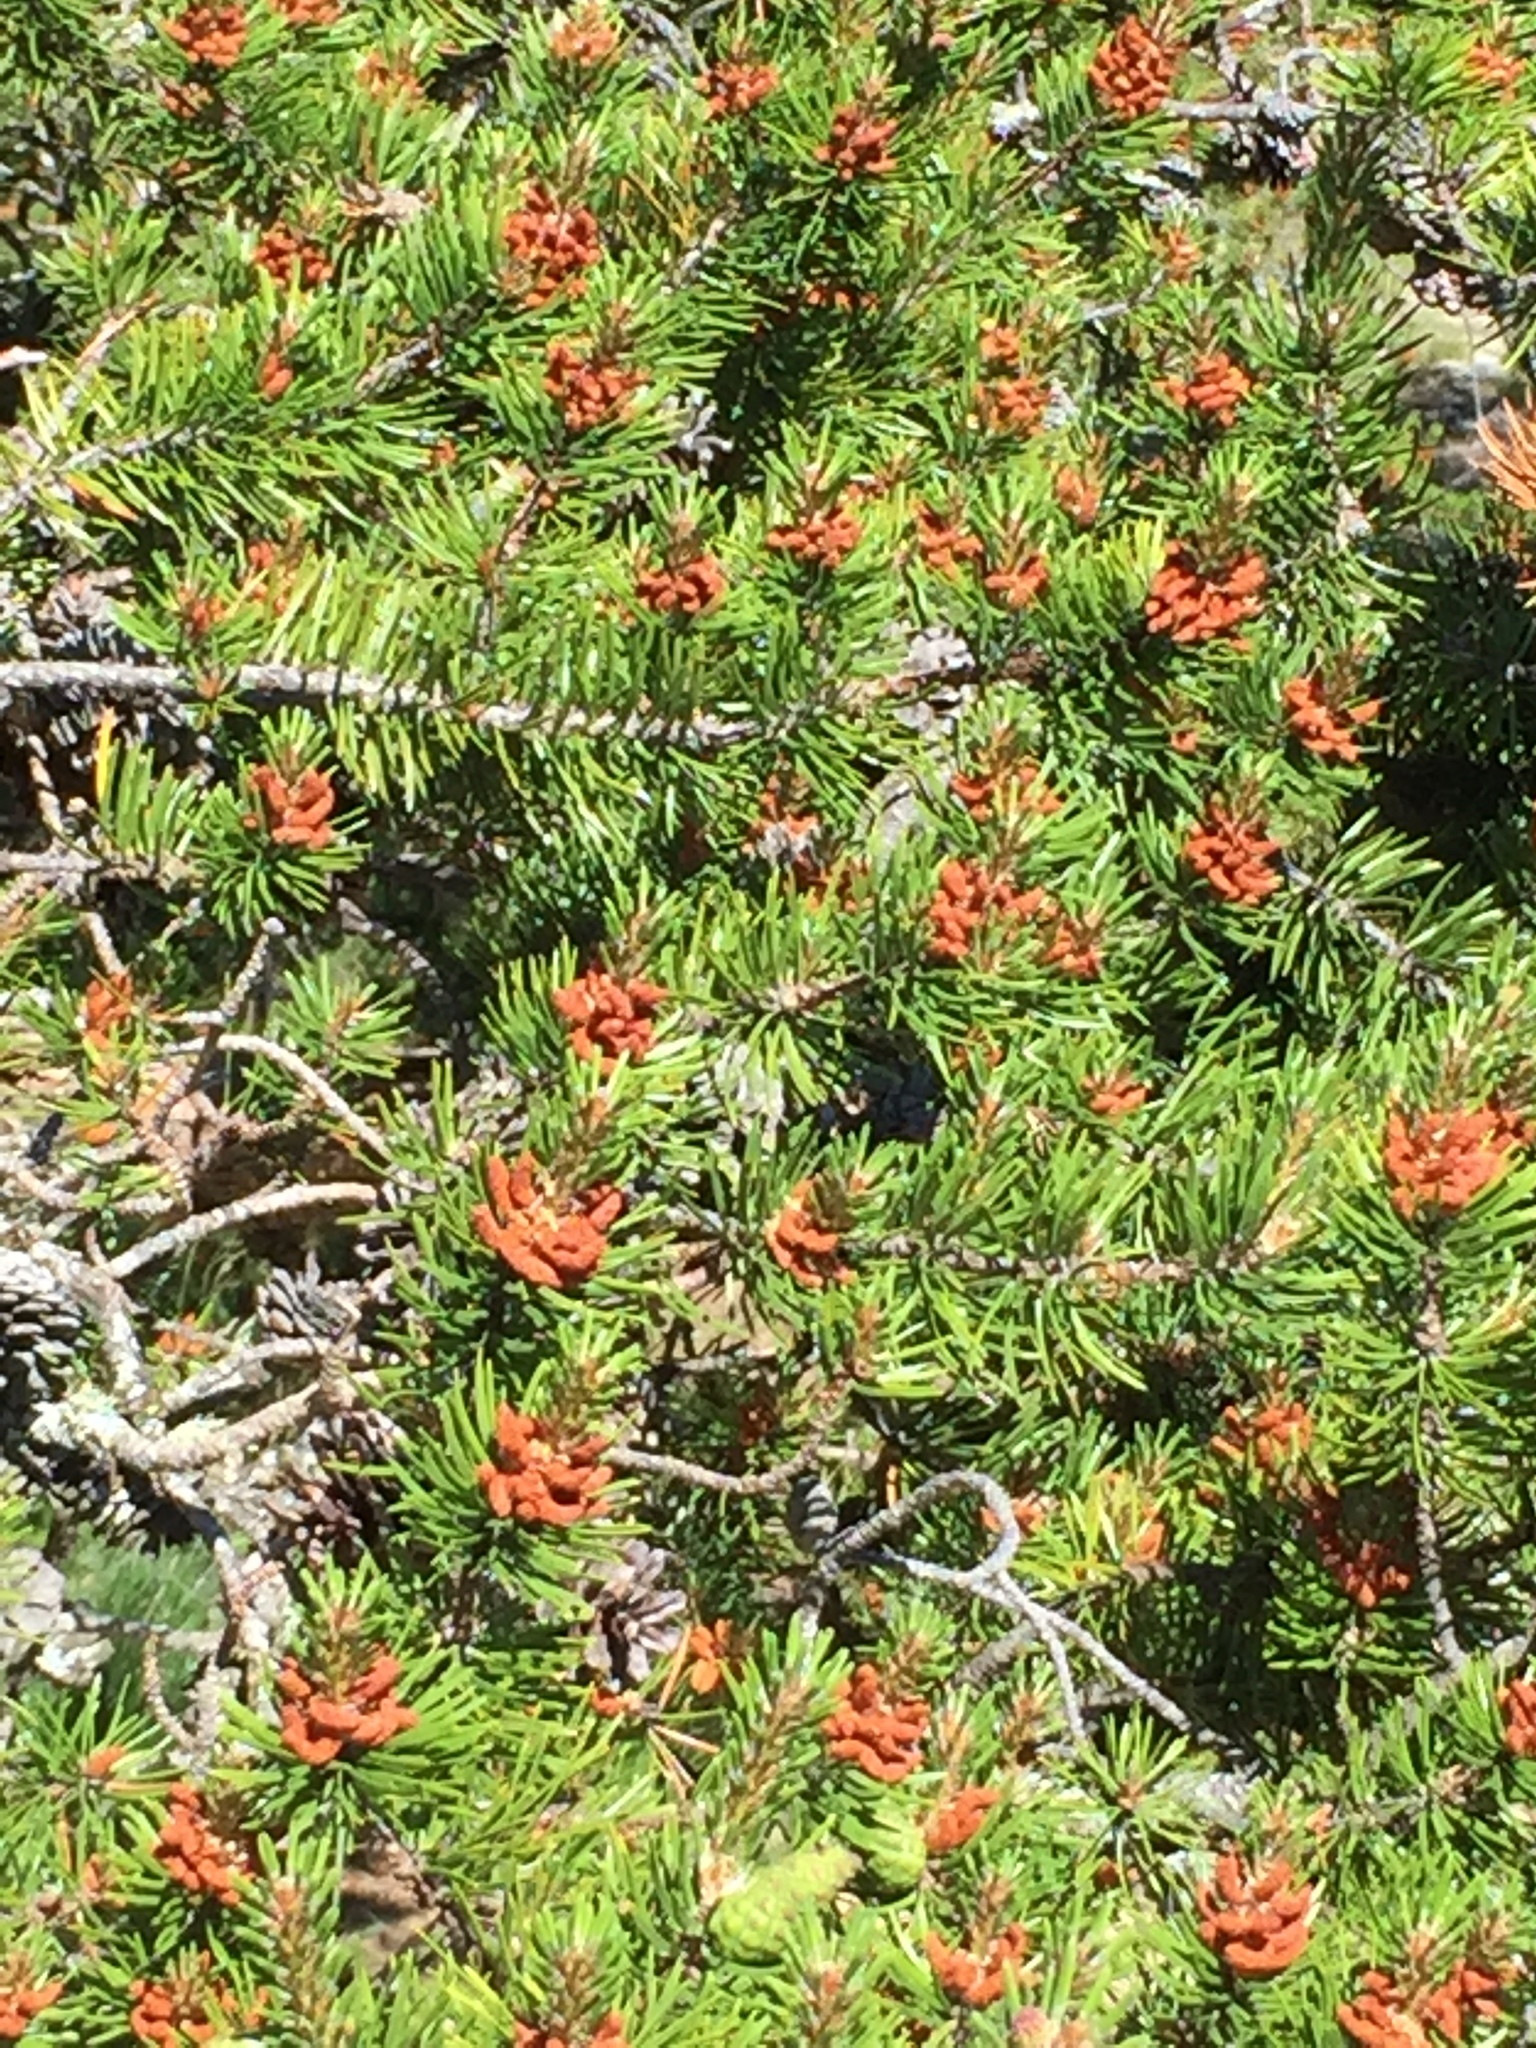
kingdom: Plantae
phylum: Tracheophyta
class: Pinopsida
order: Pinales
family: Pinaceae
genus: Pinus
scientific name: Pinus banksiana
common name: Jack pine
